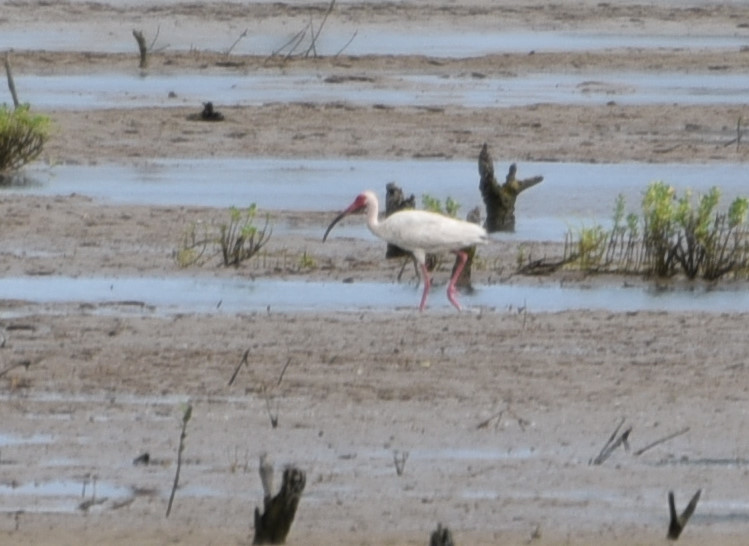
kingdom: Animalia
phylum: Chordata
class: Aves
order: Pelecaniformes
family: Threskiornithidae
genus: Eudocimus
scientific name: Eudocimus albus
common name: White ibis
